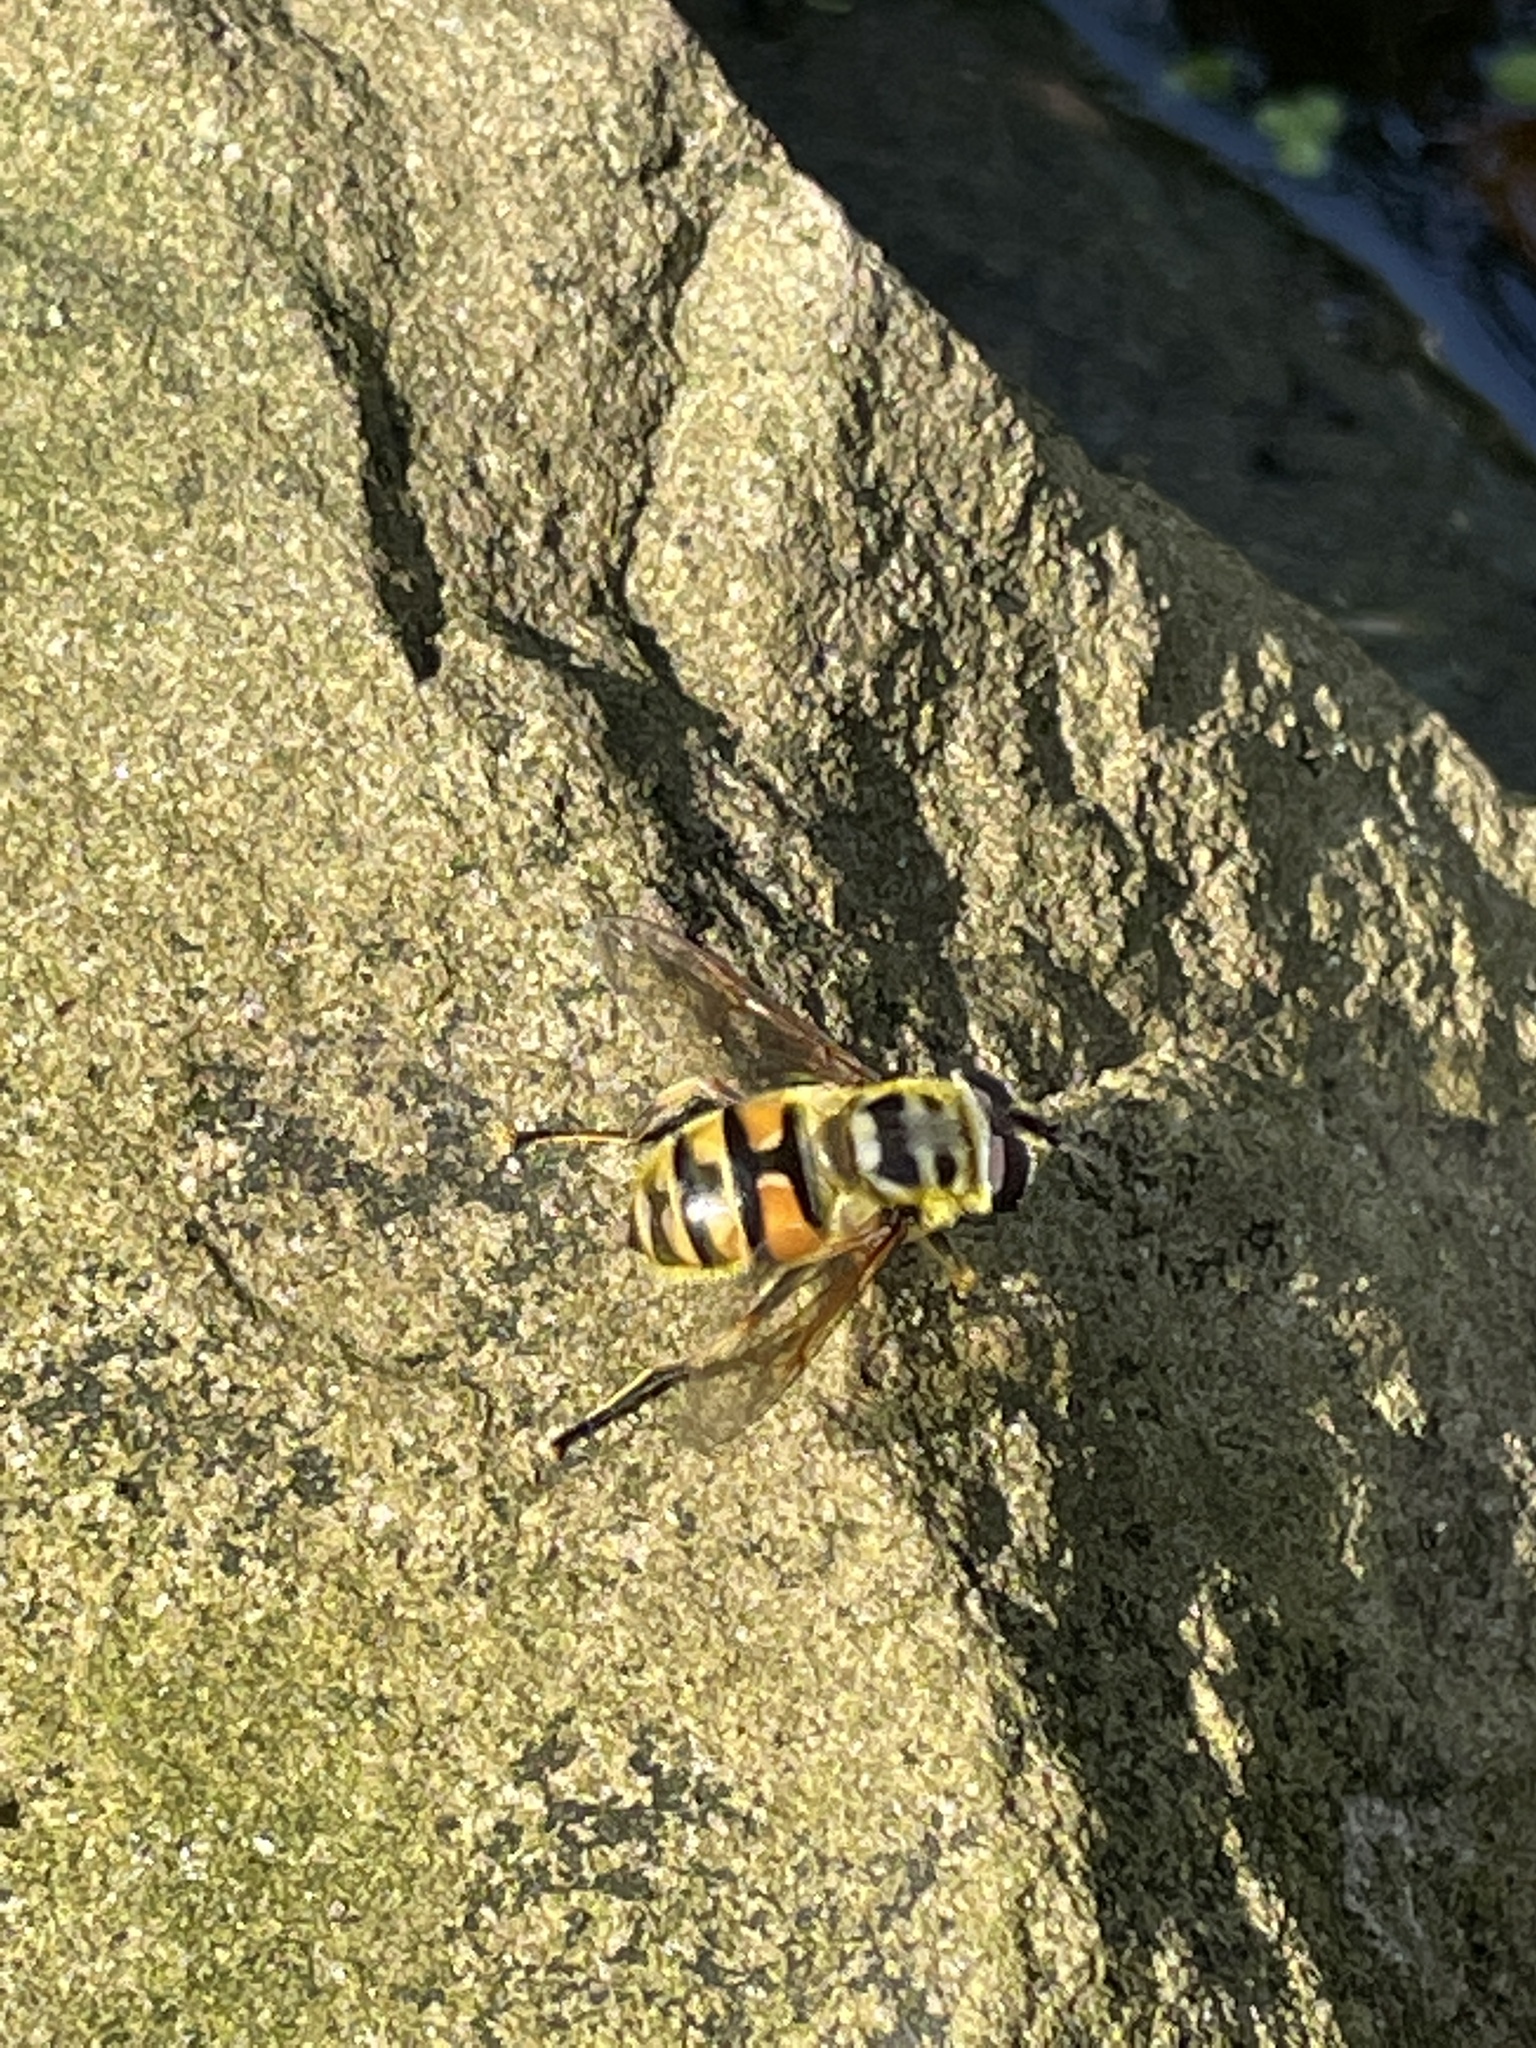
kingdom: Animalia
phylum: Arthropoda
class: Insecta
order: Diptera
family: Syrphidae
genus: Myathropa
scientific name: Myathropa florea
